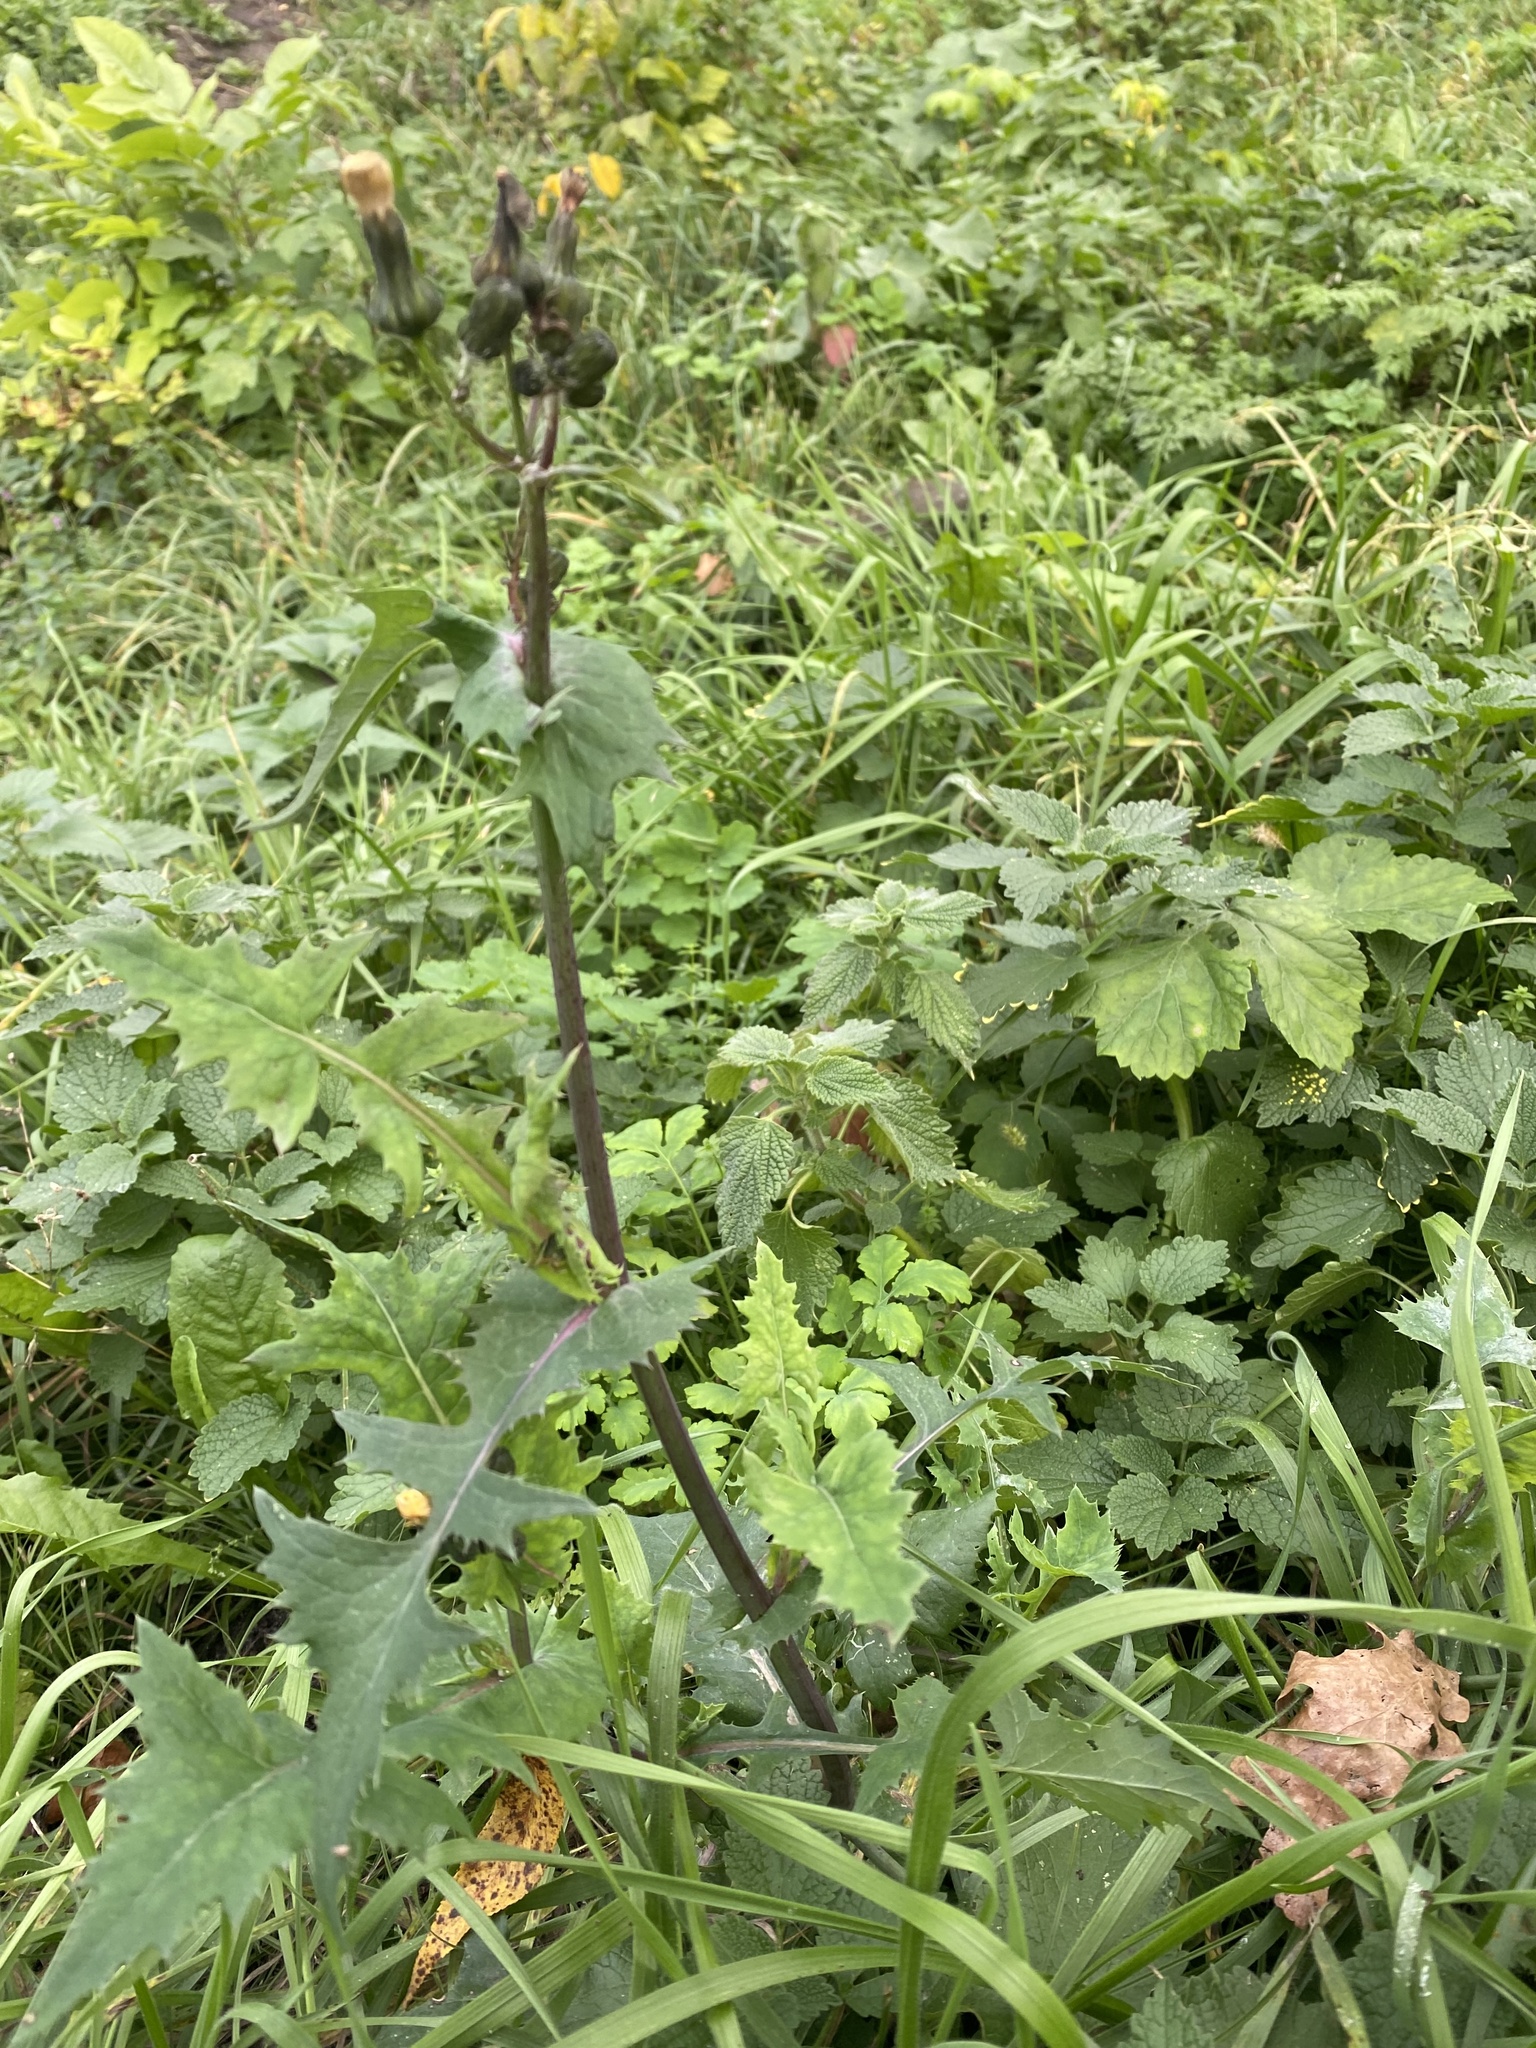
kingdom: Plantae
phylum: Tracheophyta
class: Magnoliopsida
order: Asterales
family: Asteraceae
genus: Sonchus
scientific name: Sonchus oleraceus
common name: Common sowthistle
